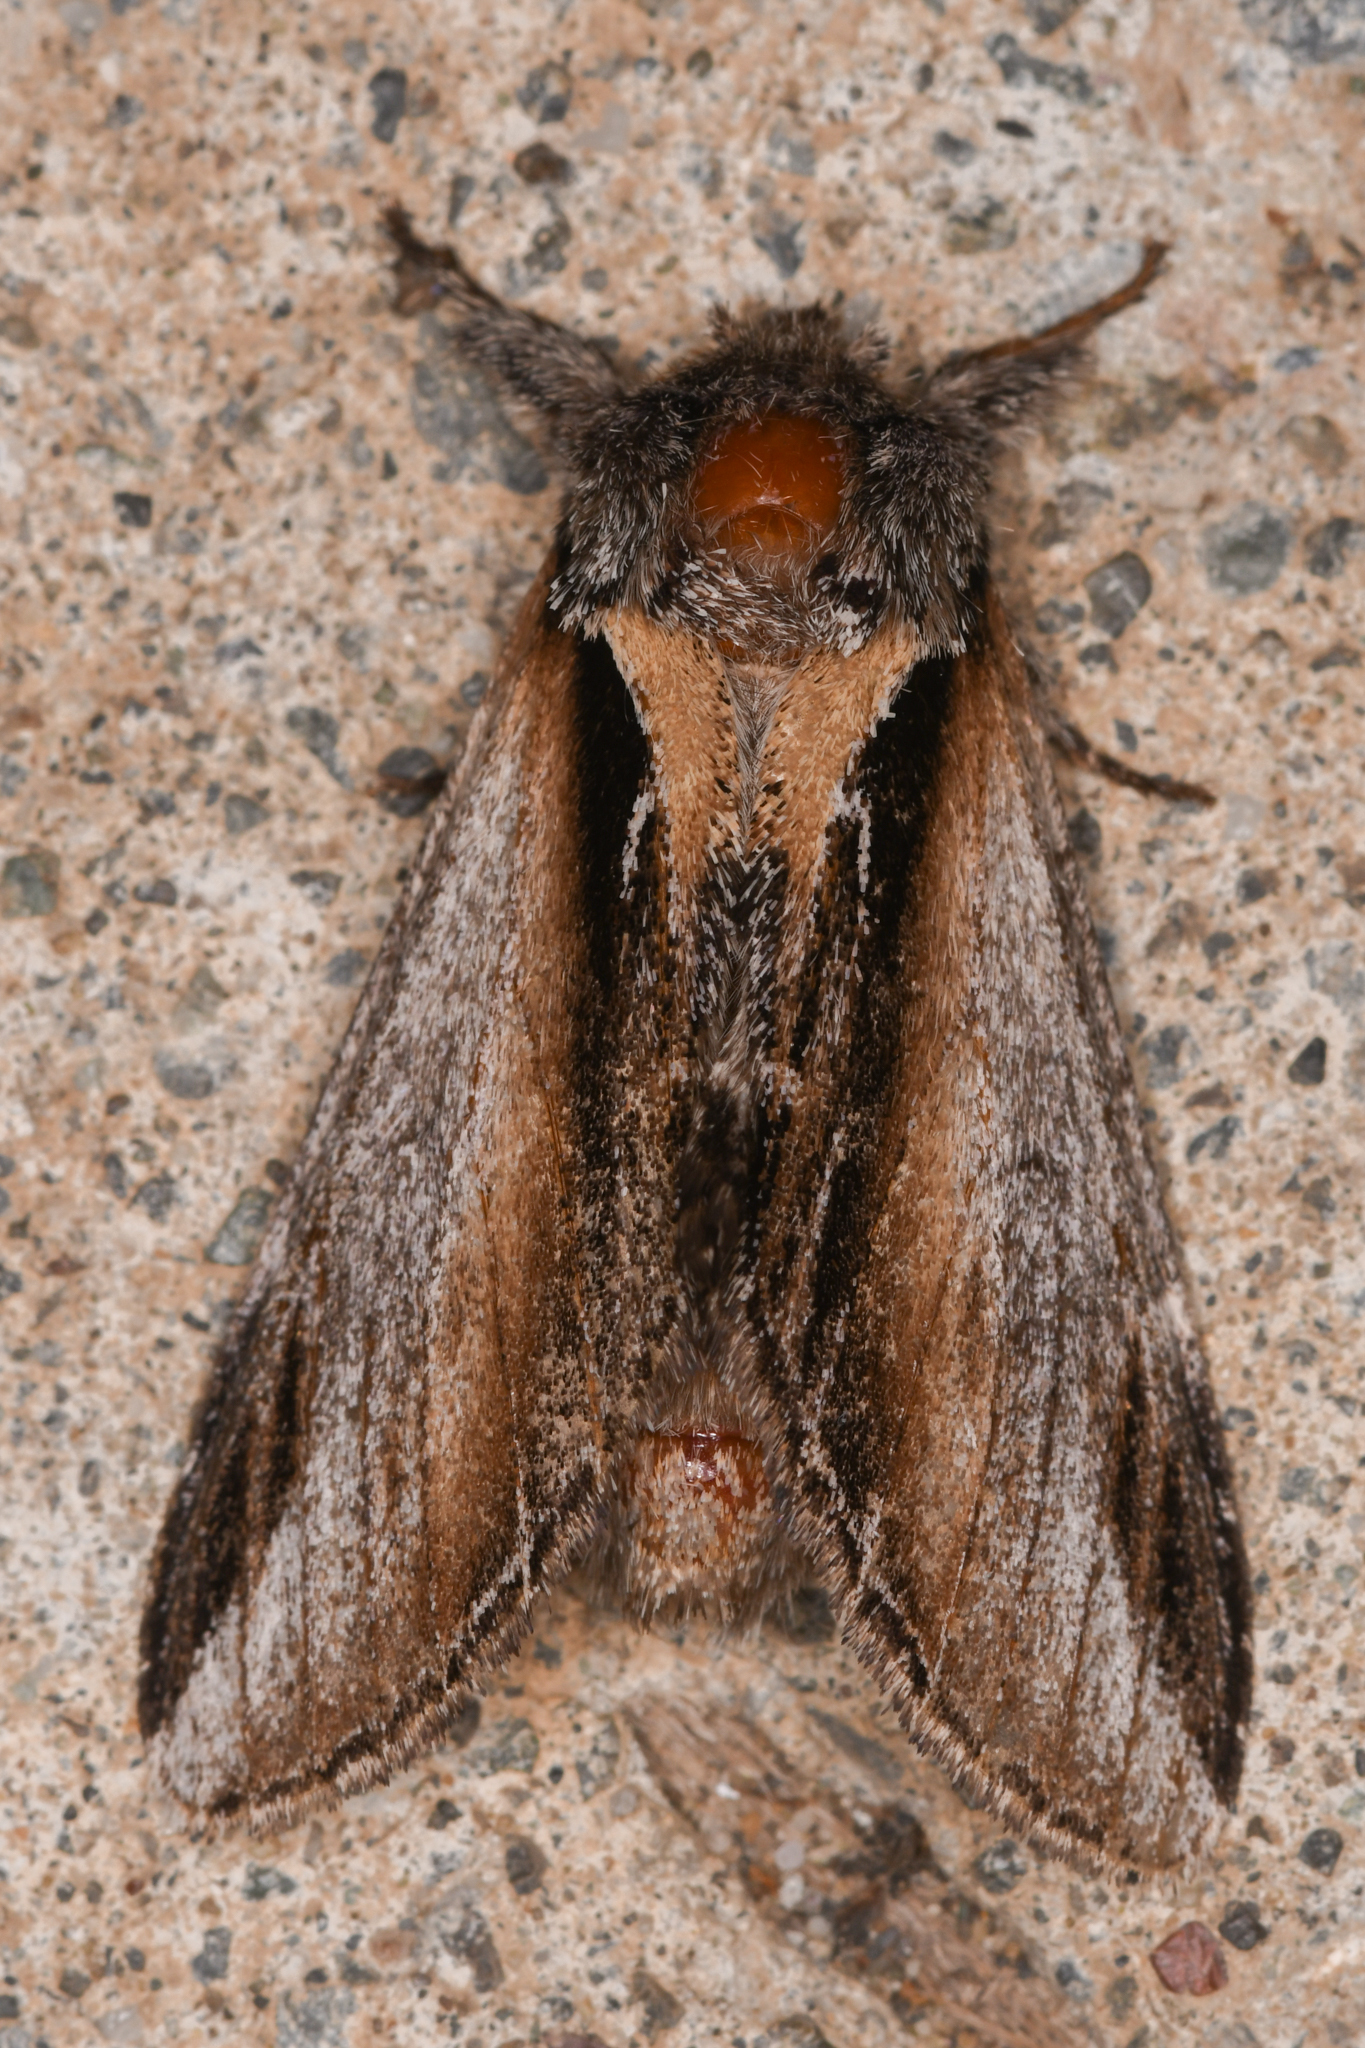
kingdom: Animalia
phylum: Arthropoda
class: Insecta
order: Lepidoptera
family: Notodontidae
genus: Pheosia
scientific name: Pheosia rimosa
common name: Black-rimmed prominent
